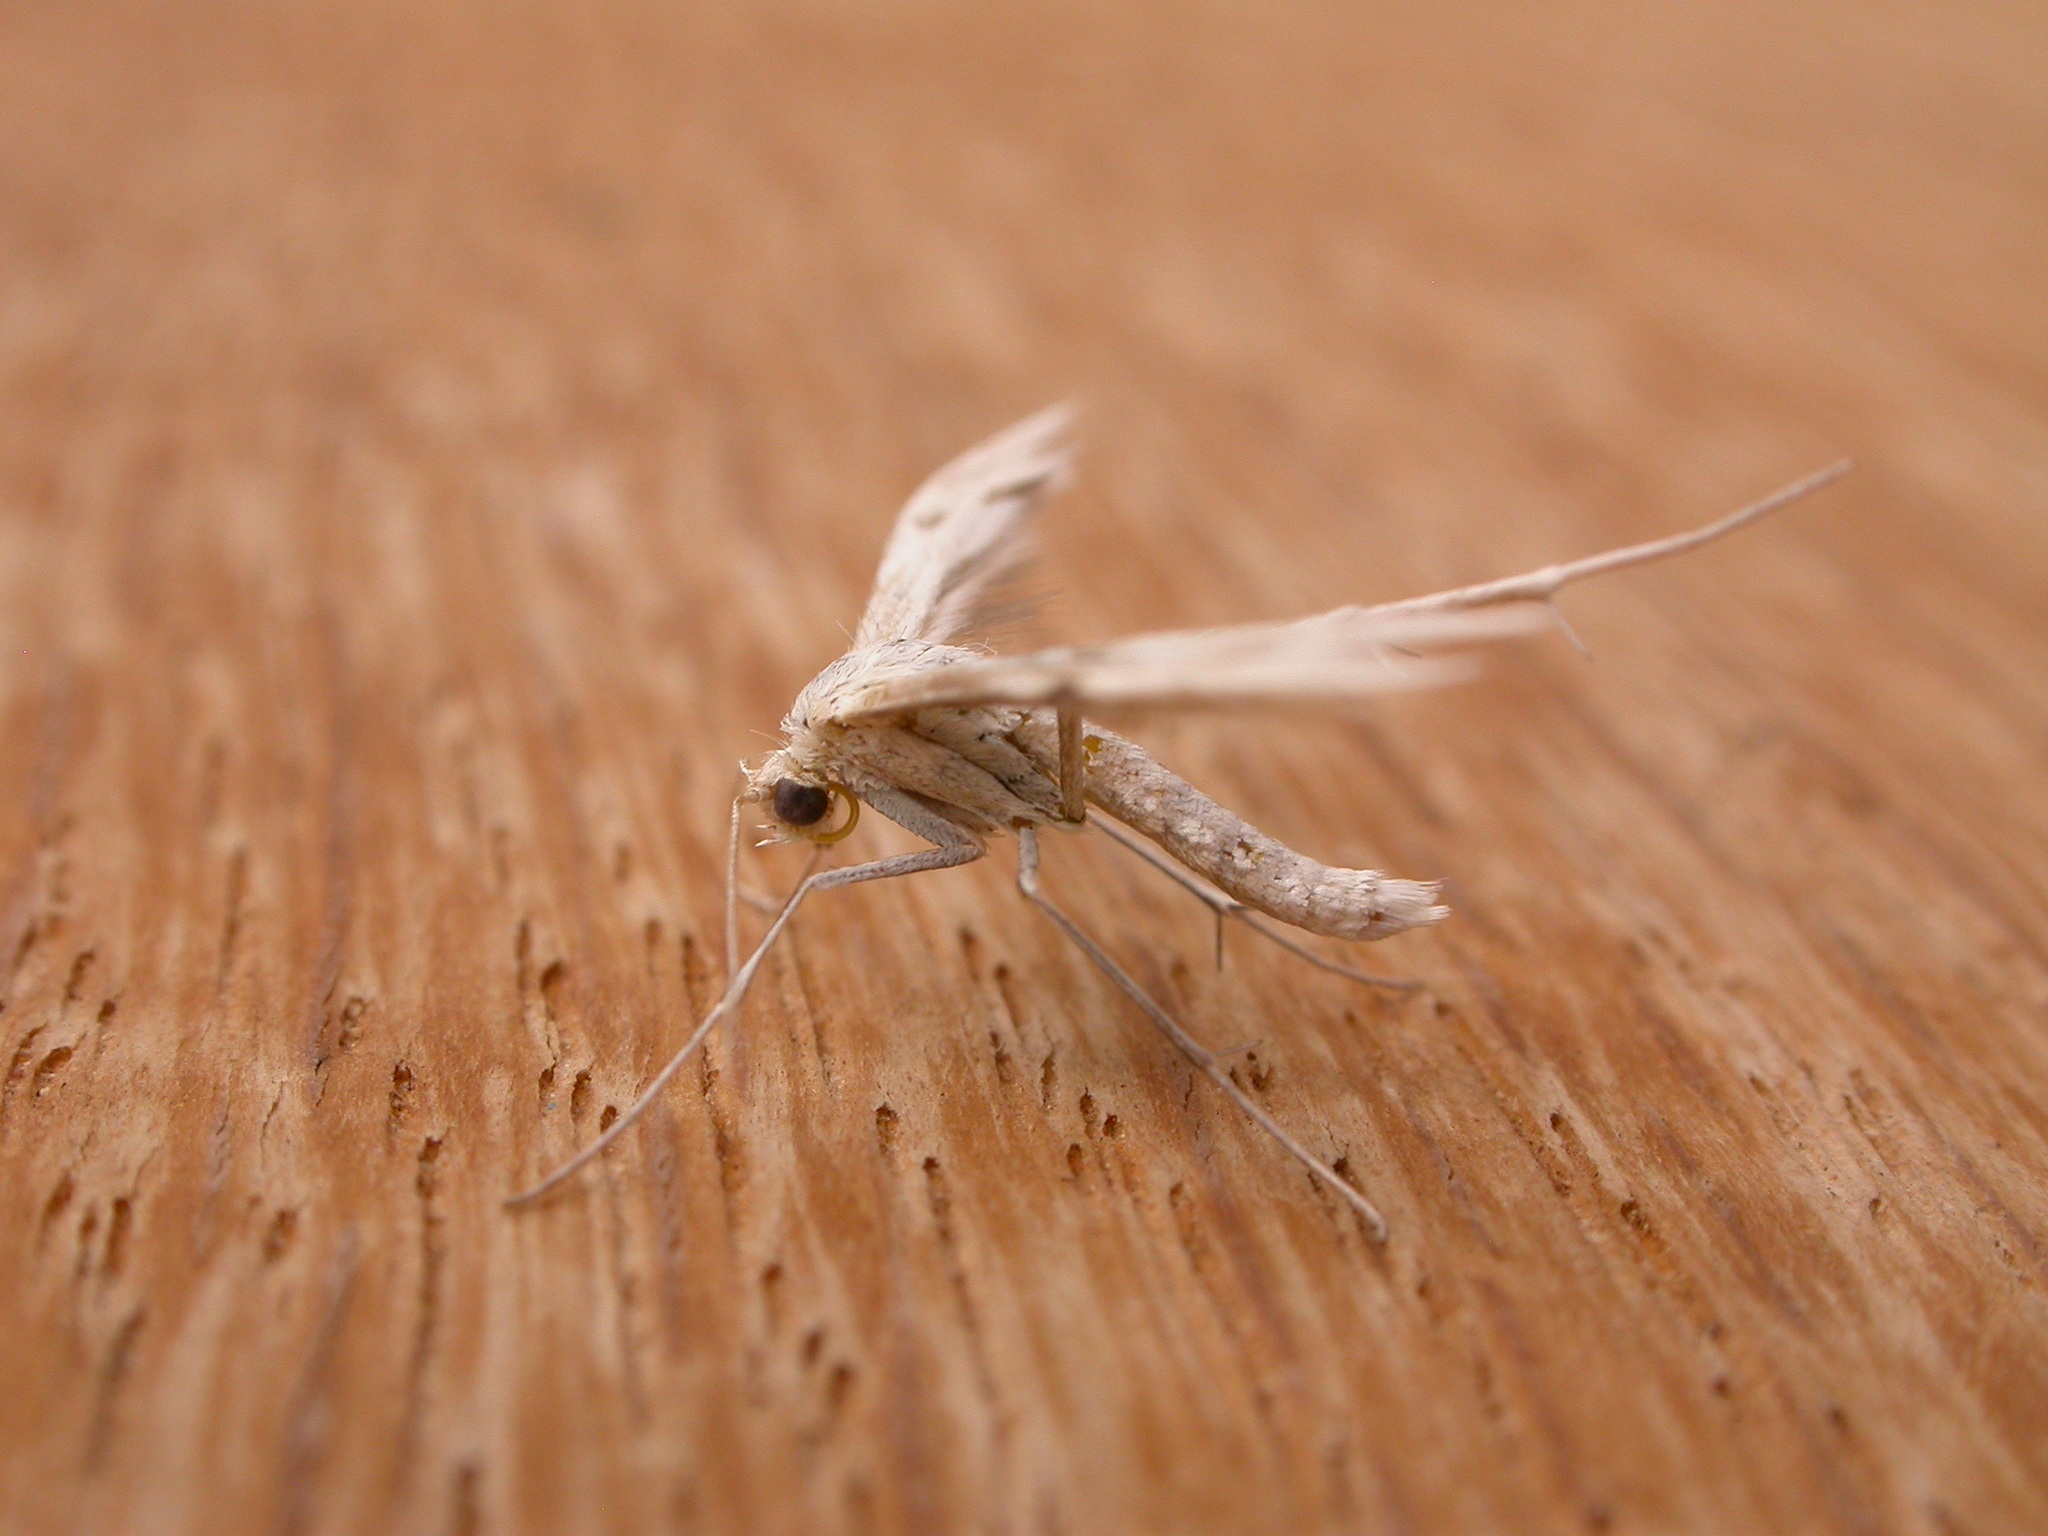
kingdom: Animalia
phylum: Arthropoda
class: Insecta
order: Lepidoptera
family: Pterophoridae
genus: Wheeleria
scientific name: Wheeleria spilodactylus
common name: Horehound plume
